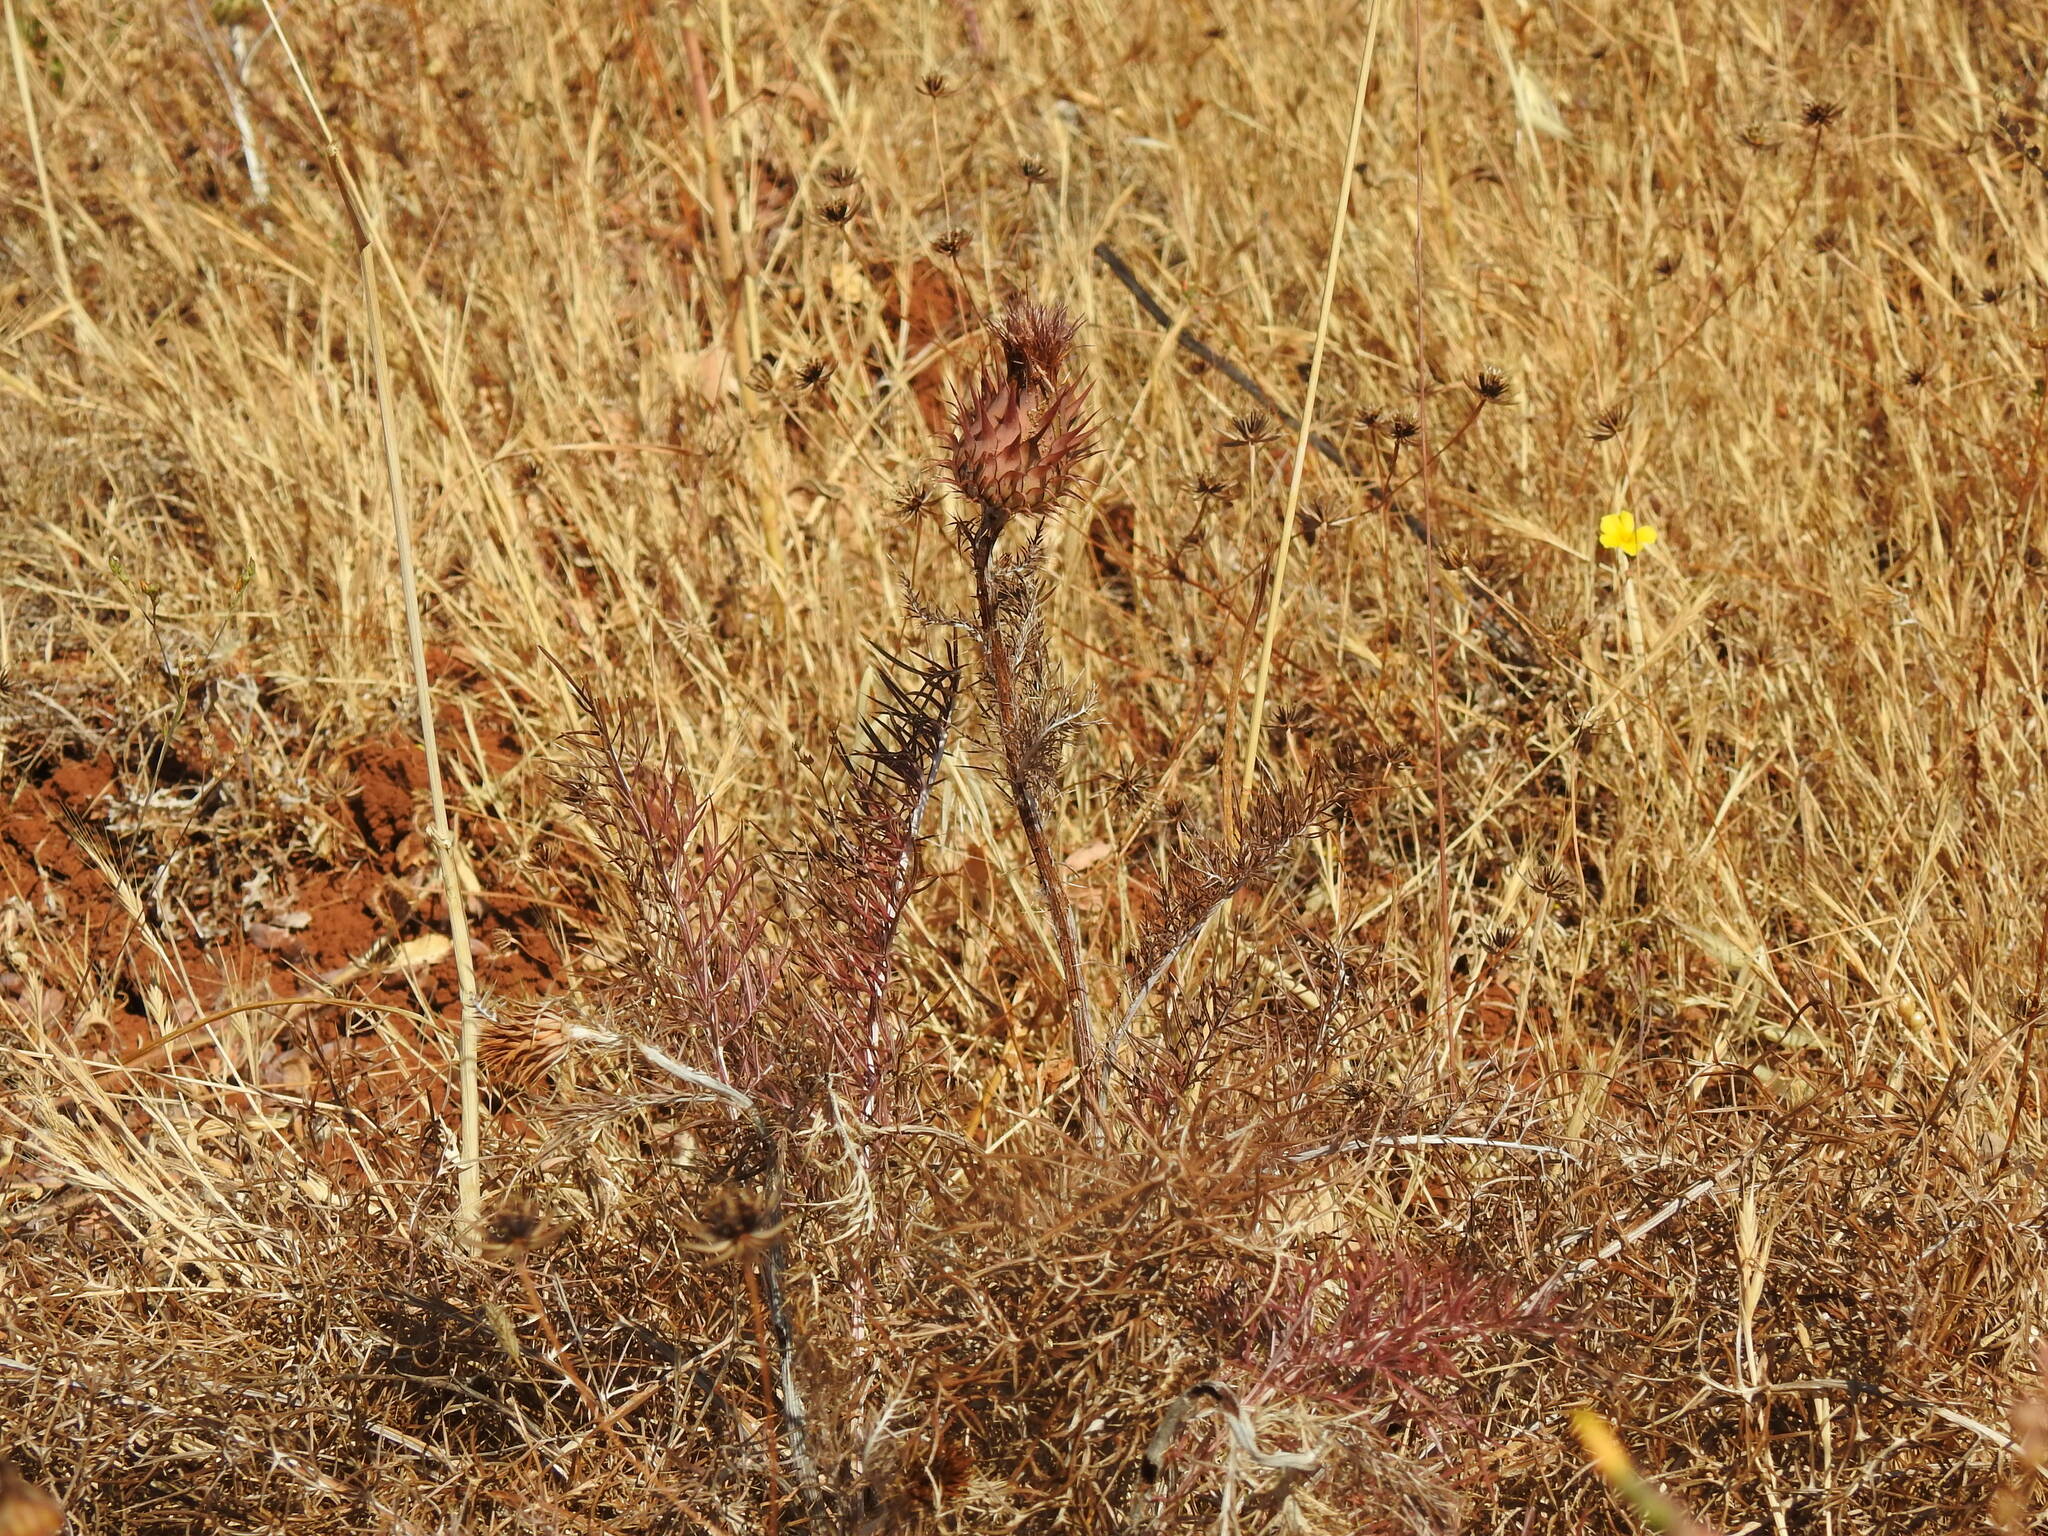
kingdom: Plantae
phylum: Tracheophyta
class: Magnoliopsida
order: Asterales
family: Asteraceae
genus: Cynara
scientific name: Cynara humilis
